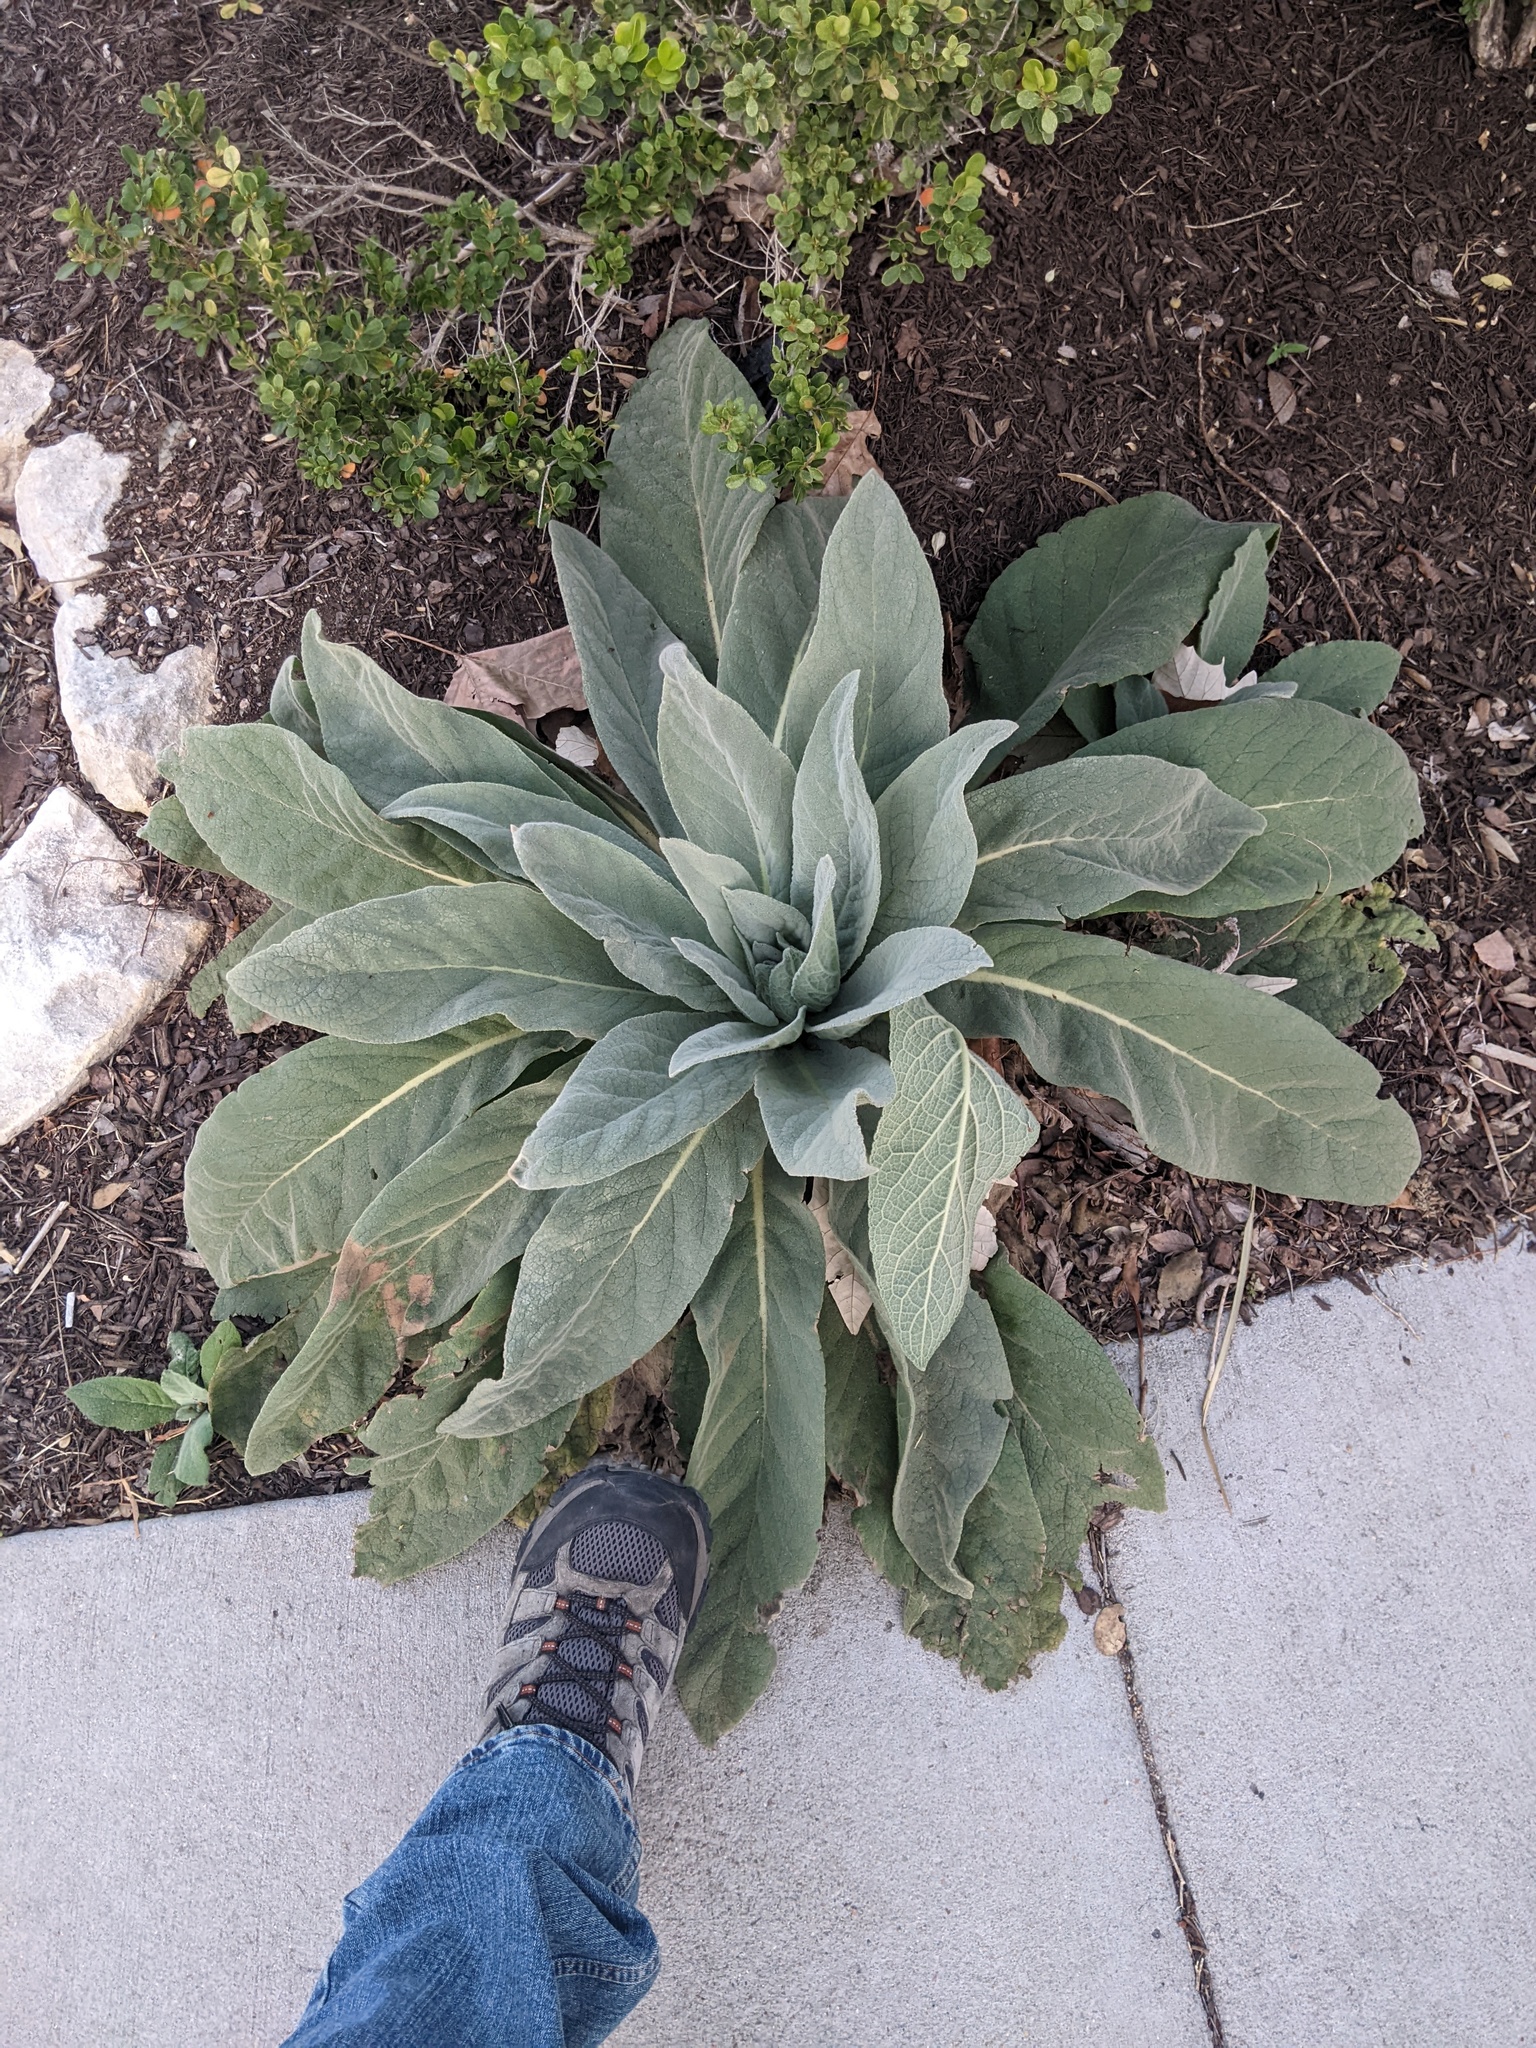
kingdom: Plantae
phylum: Tracheophyta
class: Magnoliopsida
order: Lamiales
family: Scrophulariaceae
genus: Verbascum
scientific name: Verbascum thapsus
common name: Common mullein
